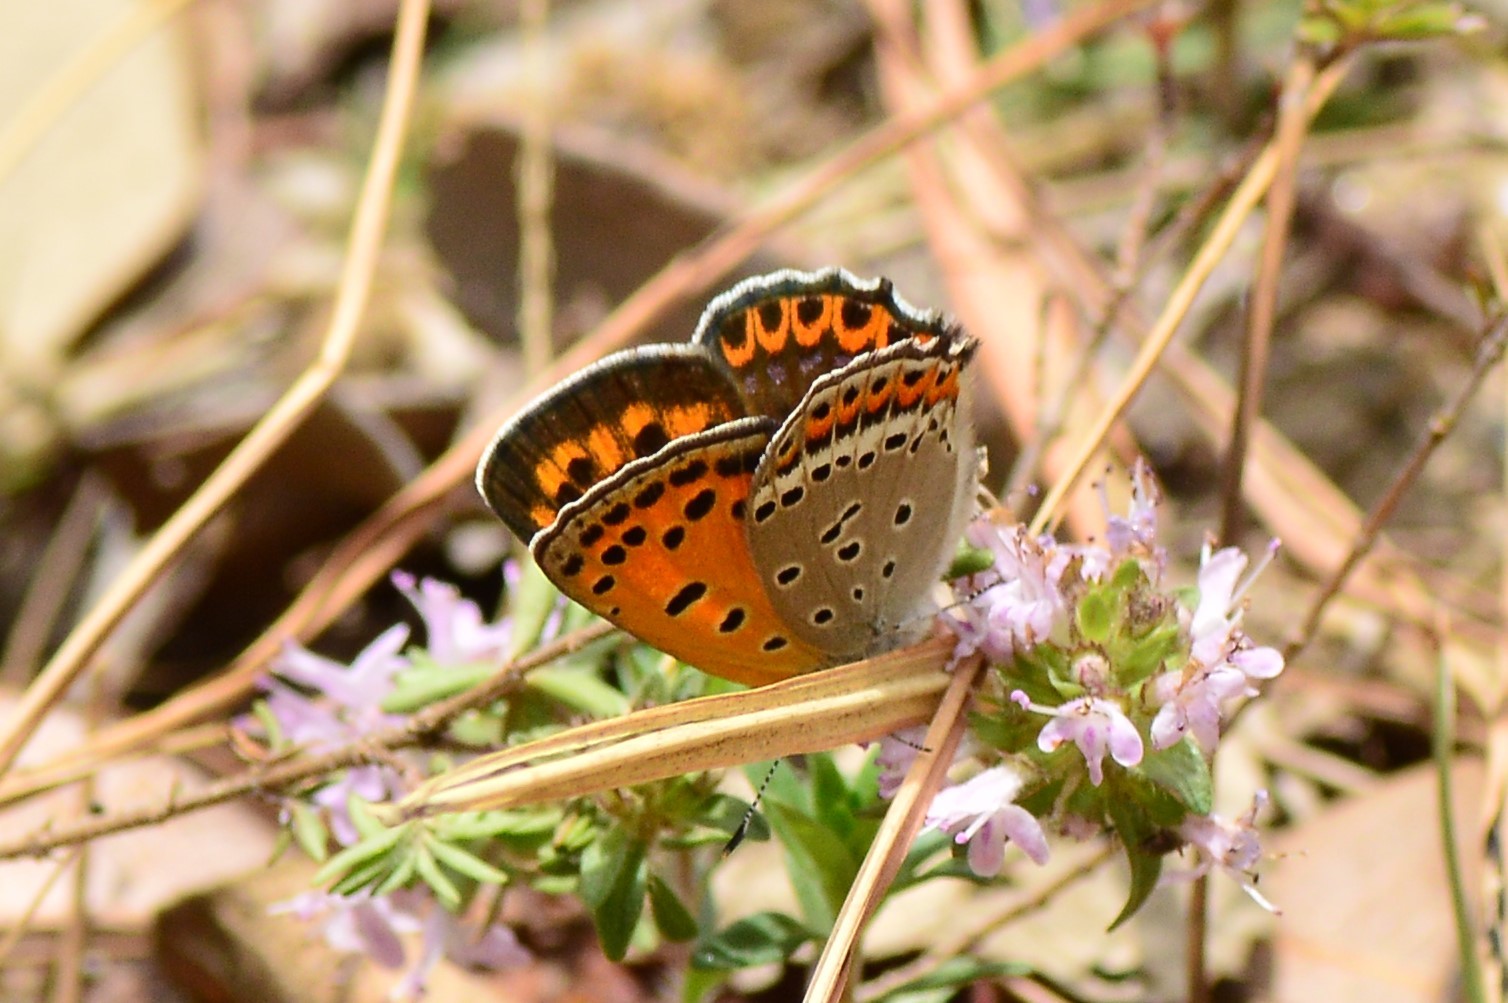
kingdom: Animalia
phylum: Arthropoda
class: Insecta
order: Lepidoptera
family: Lycaenidae
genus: Lycaena
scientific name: Lycaena panava
